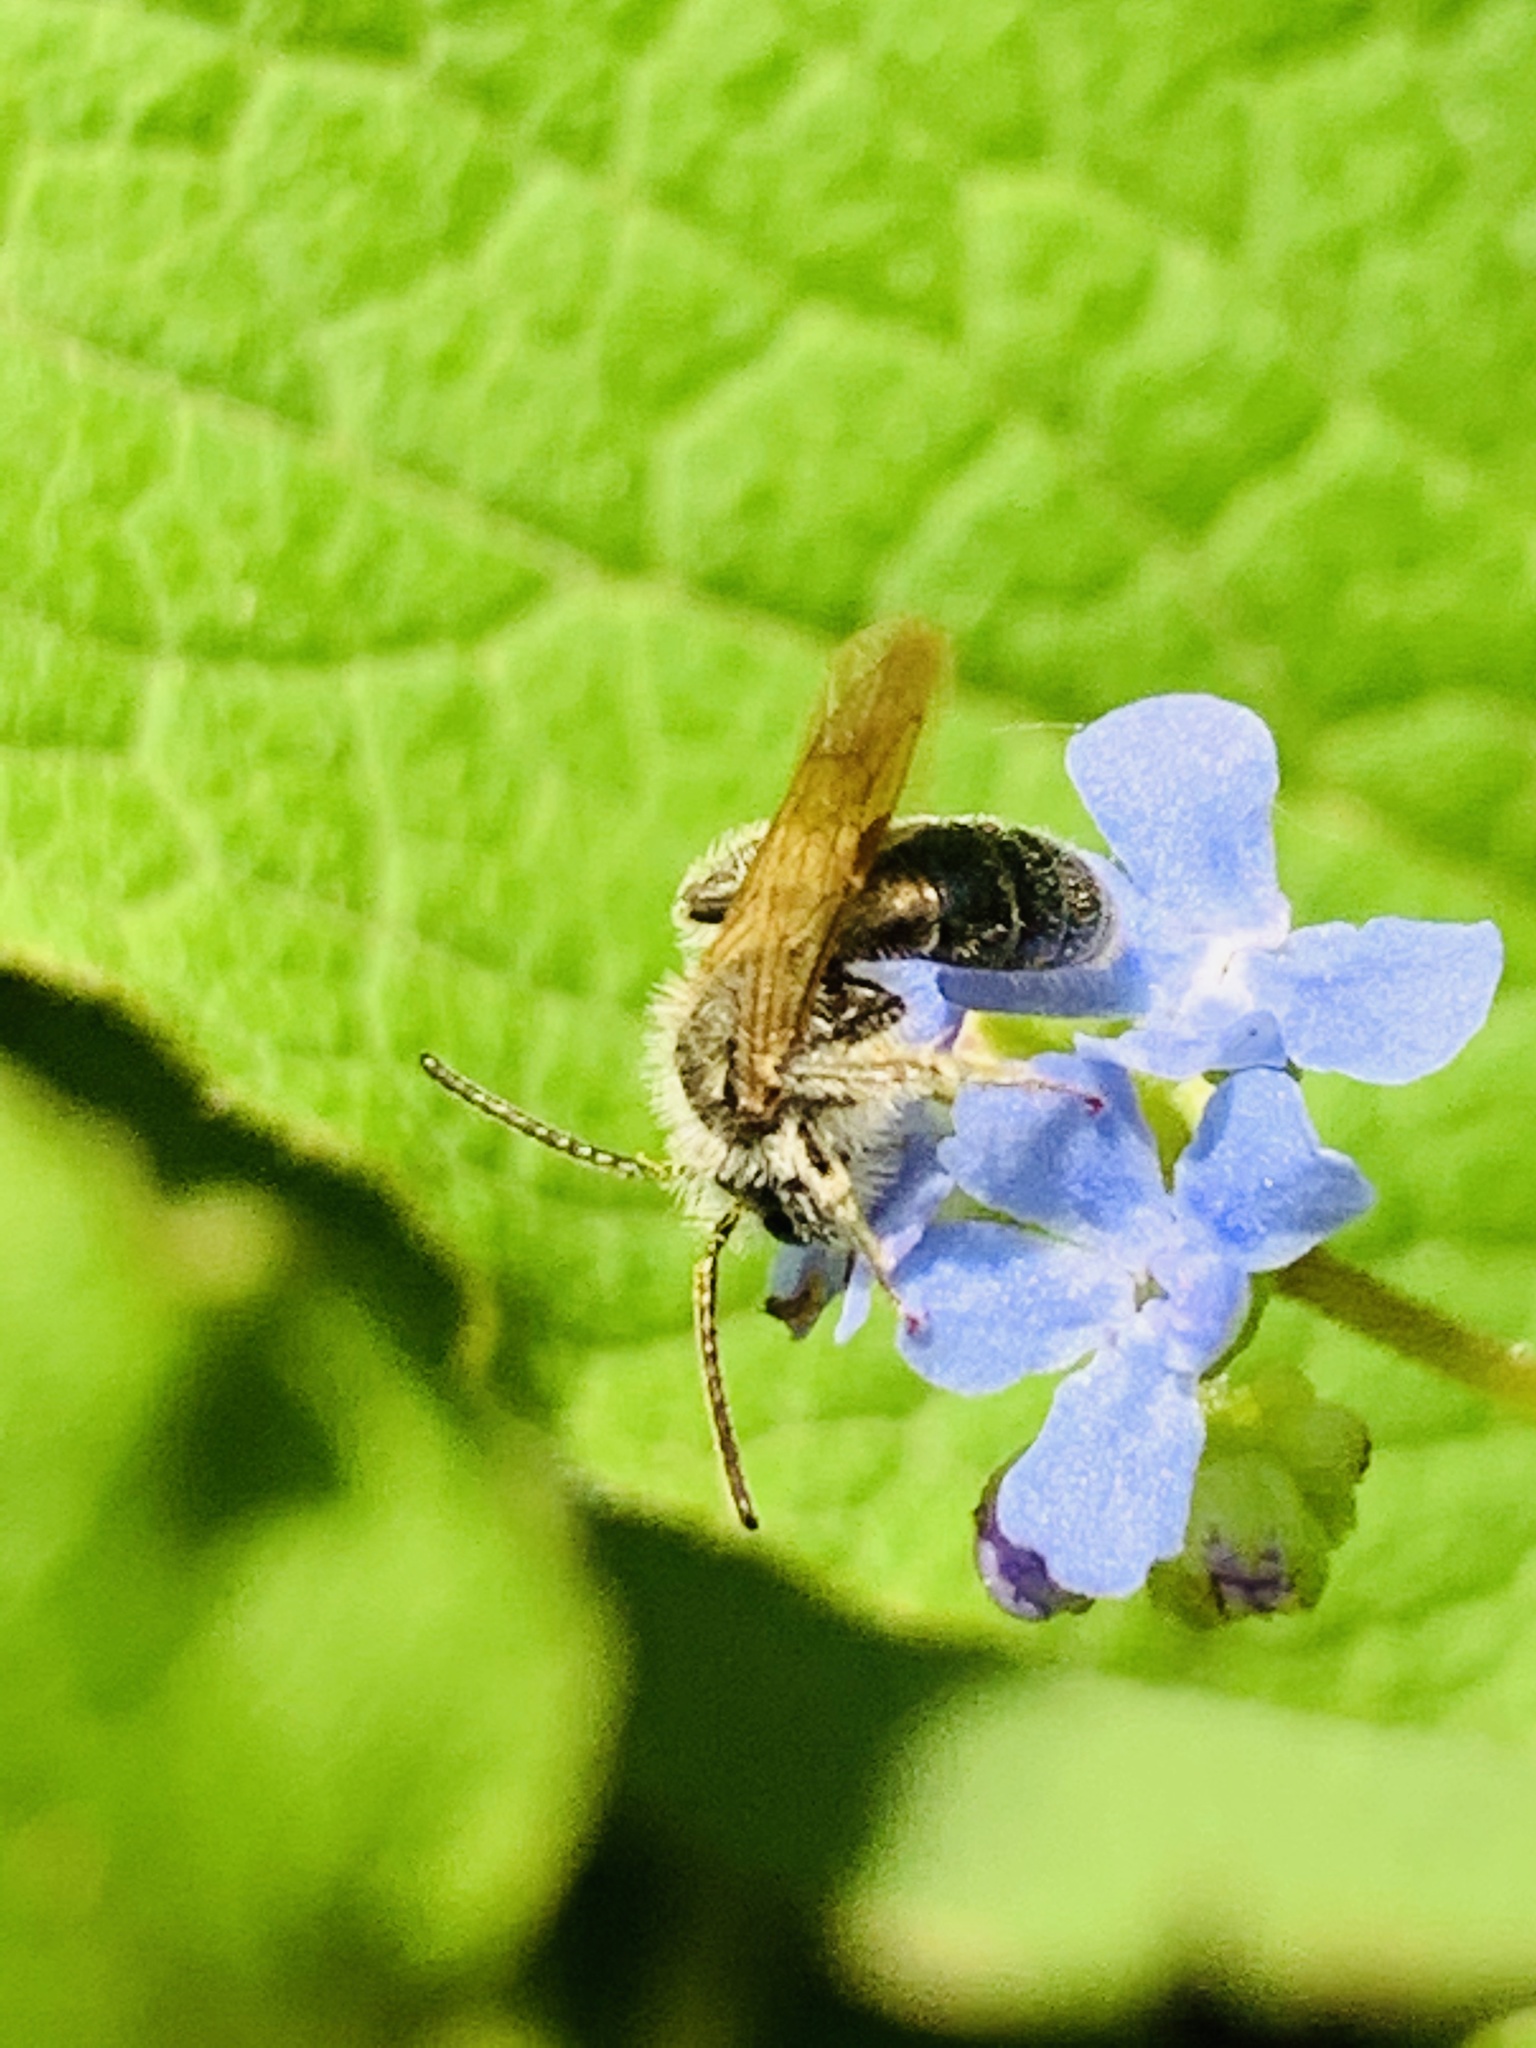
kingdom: Animalia
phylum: Arthropoda
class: Insecta
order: Hymenoptera
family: Andrenidae
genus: Andrena
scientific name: Andrena
